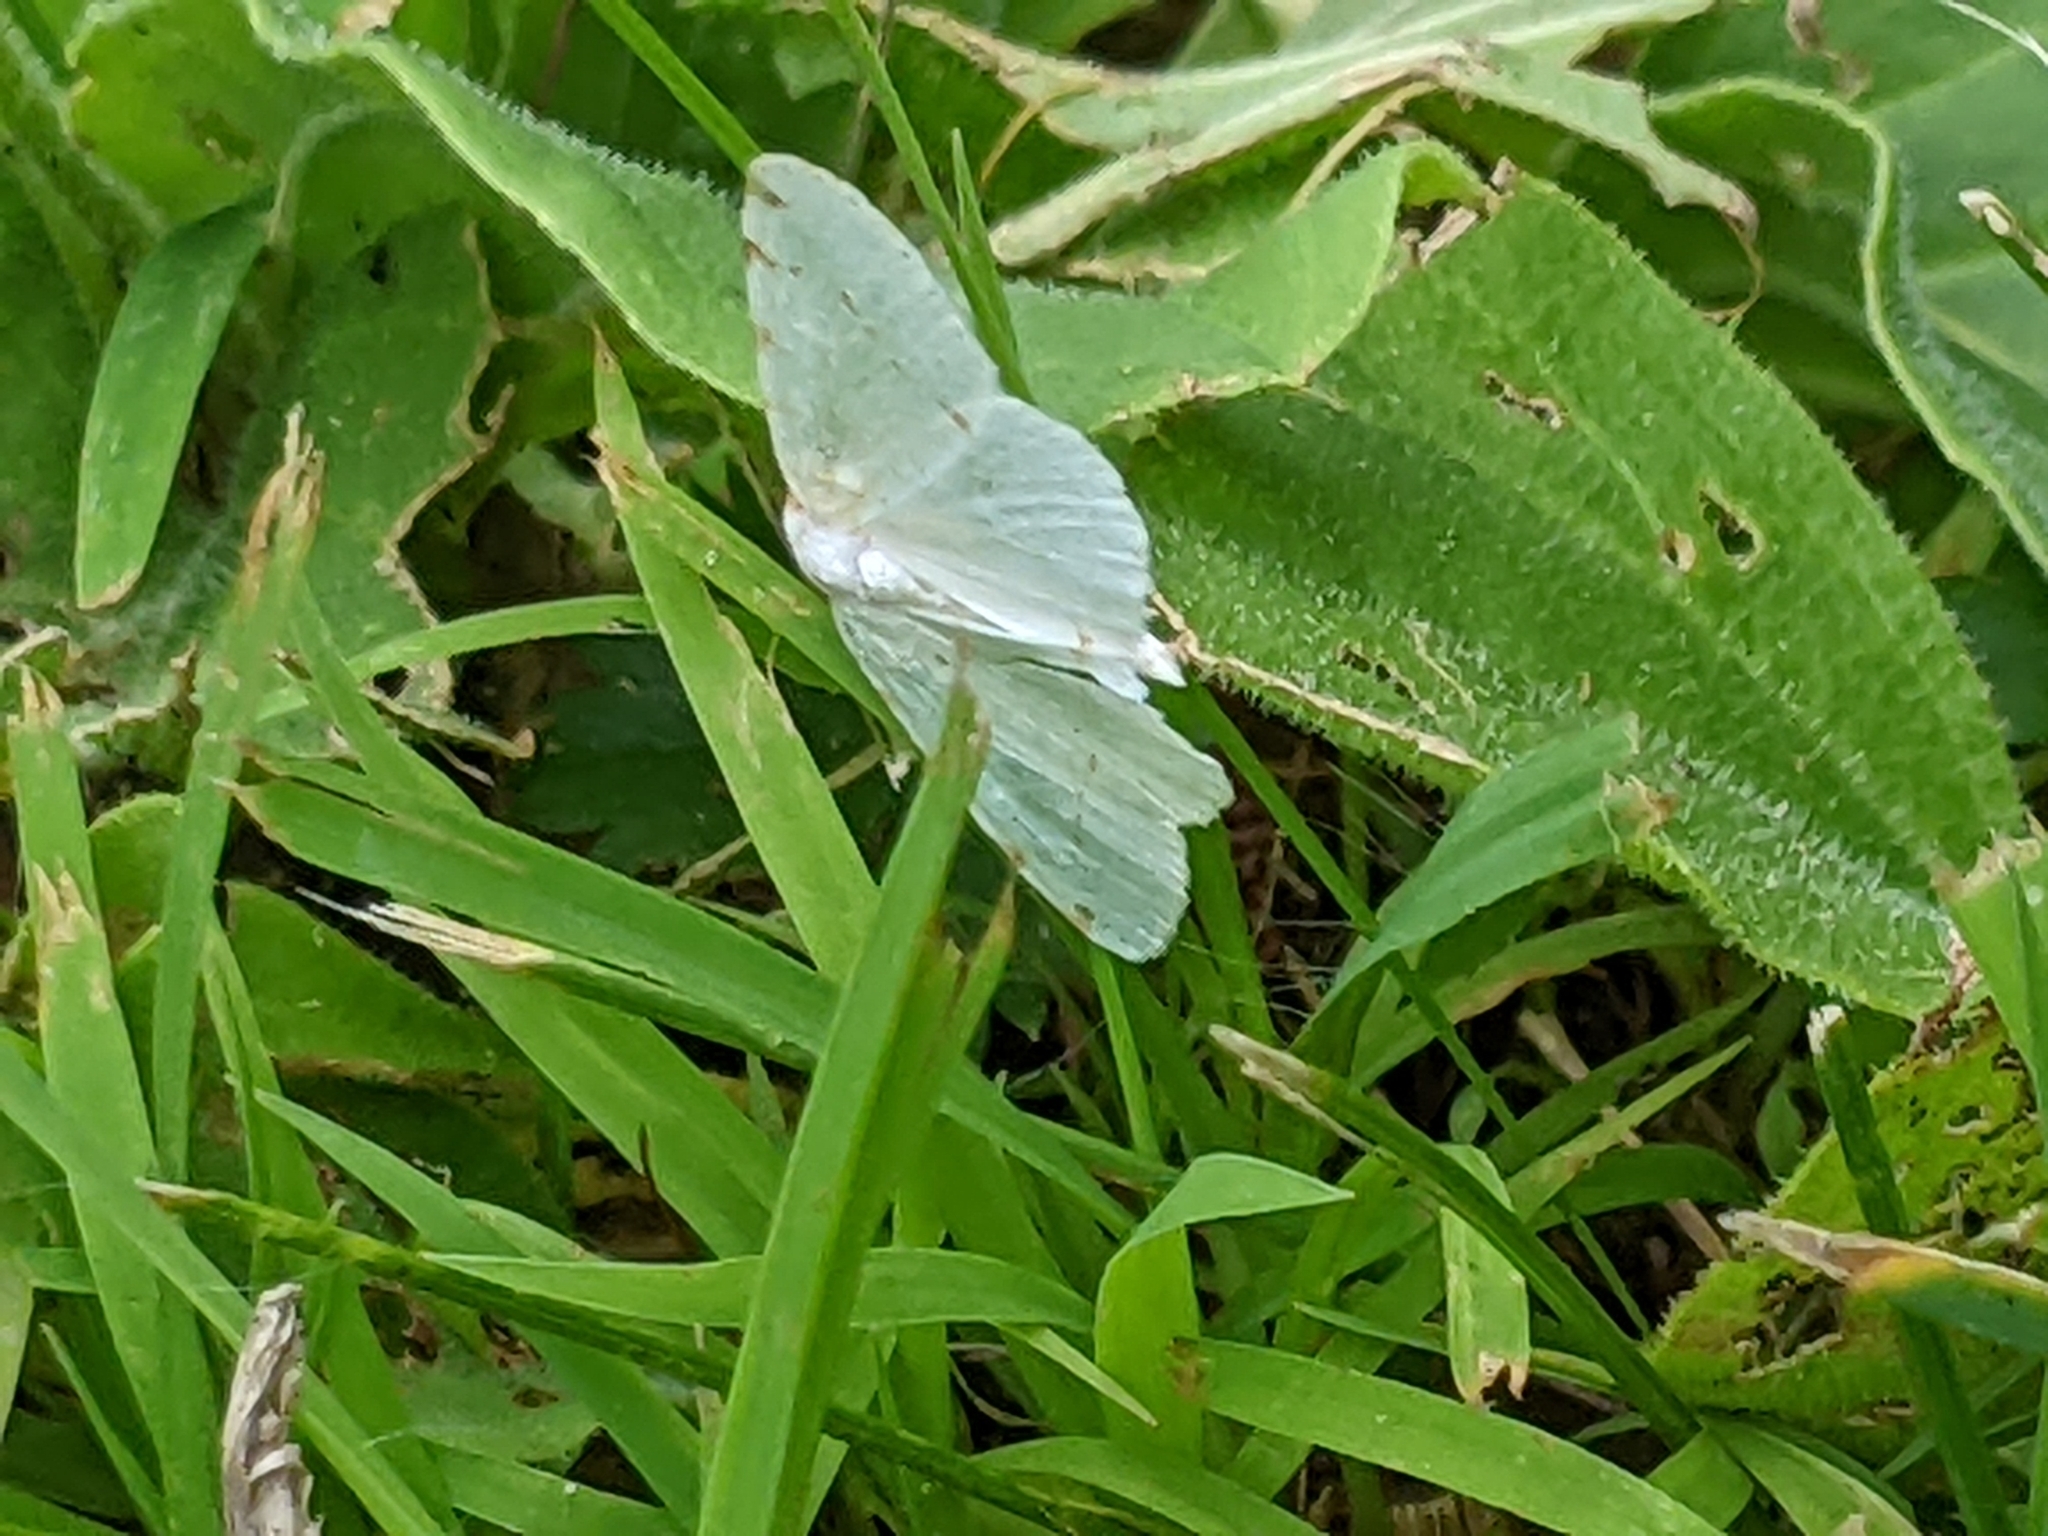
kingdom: Animalia
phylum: Arthropoda
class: Insecta
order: Lepidoptera
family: Geometridae
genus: Macaria
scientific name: Macaria pustularia
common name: Lesser maple spanworm moth
